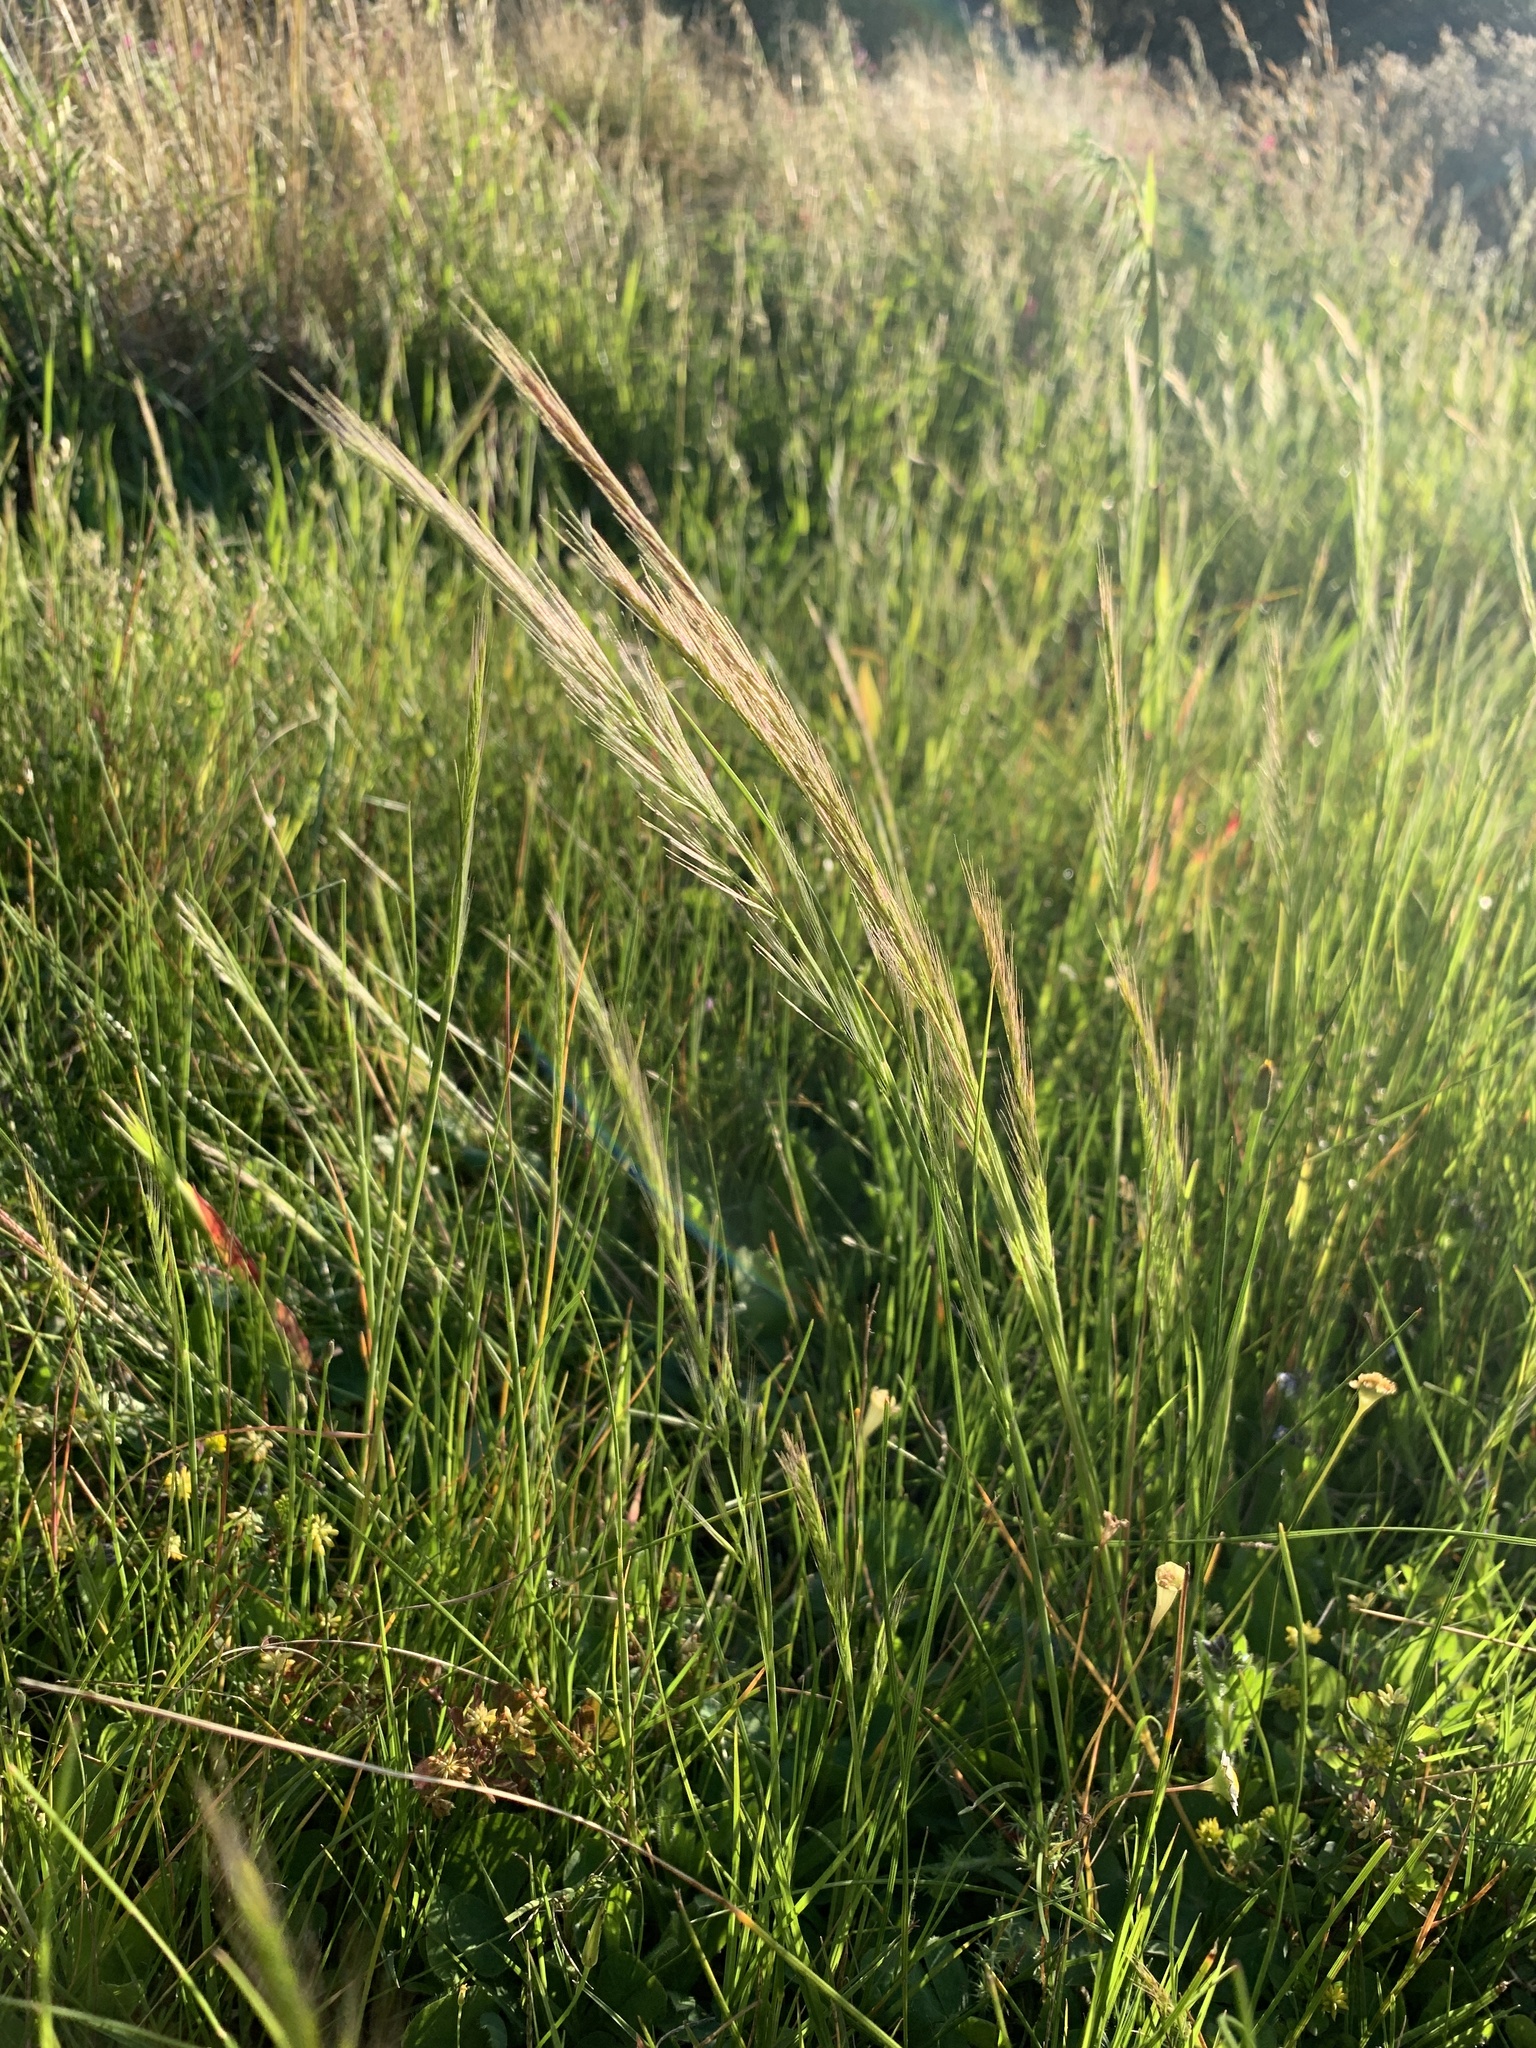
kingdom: Plantae
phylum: Tracheophyta
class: Liliopsida
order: Poales
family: Poaceae
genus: Festuca
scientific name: Festuca myuros
